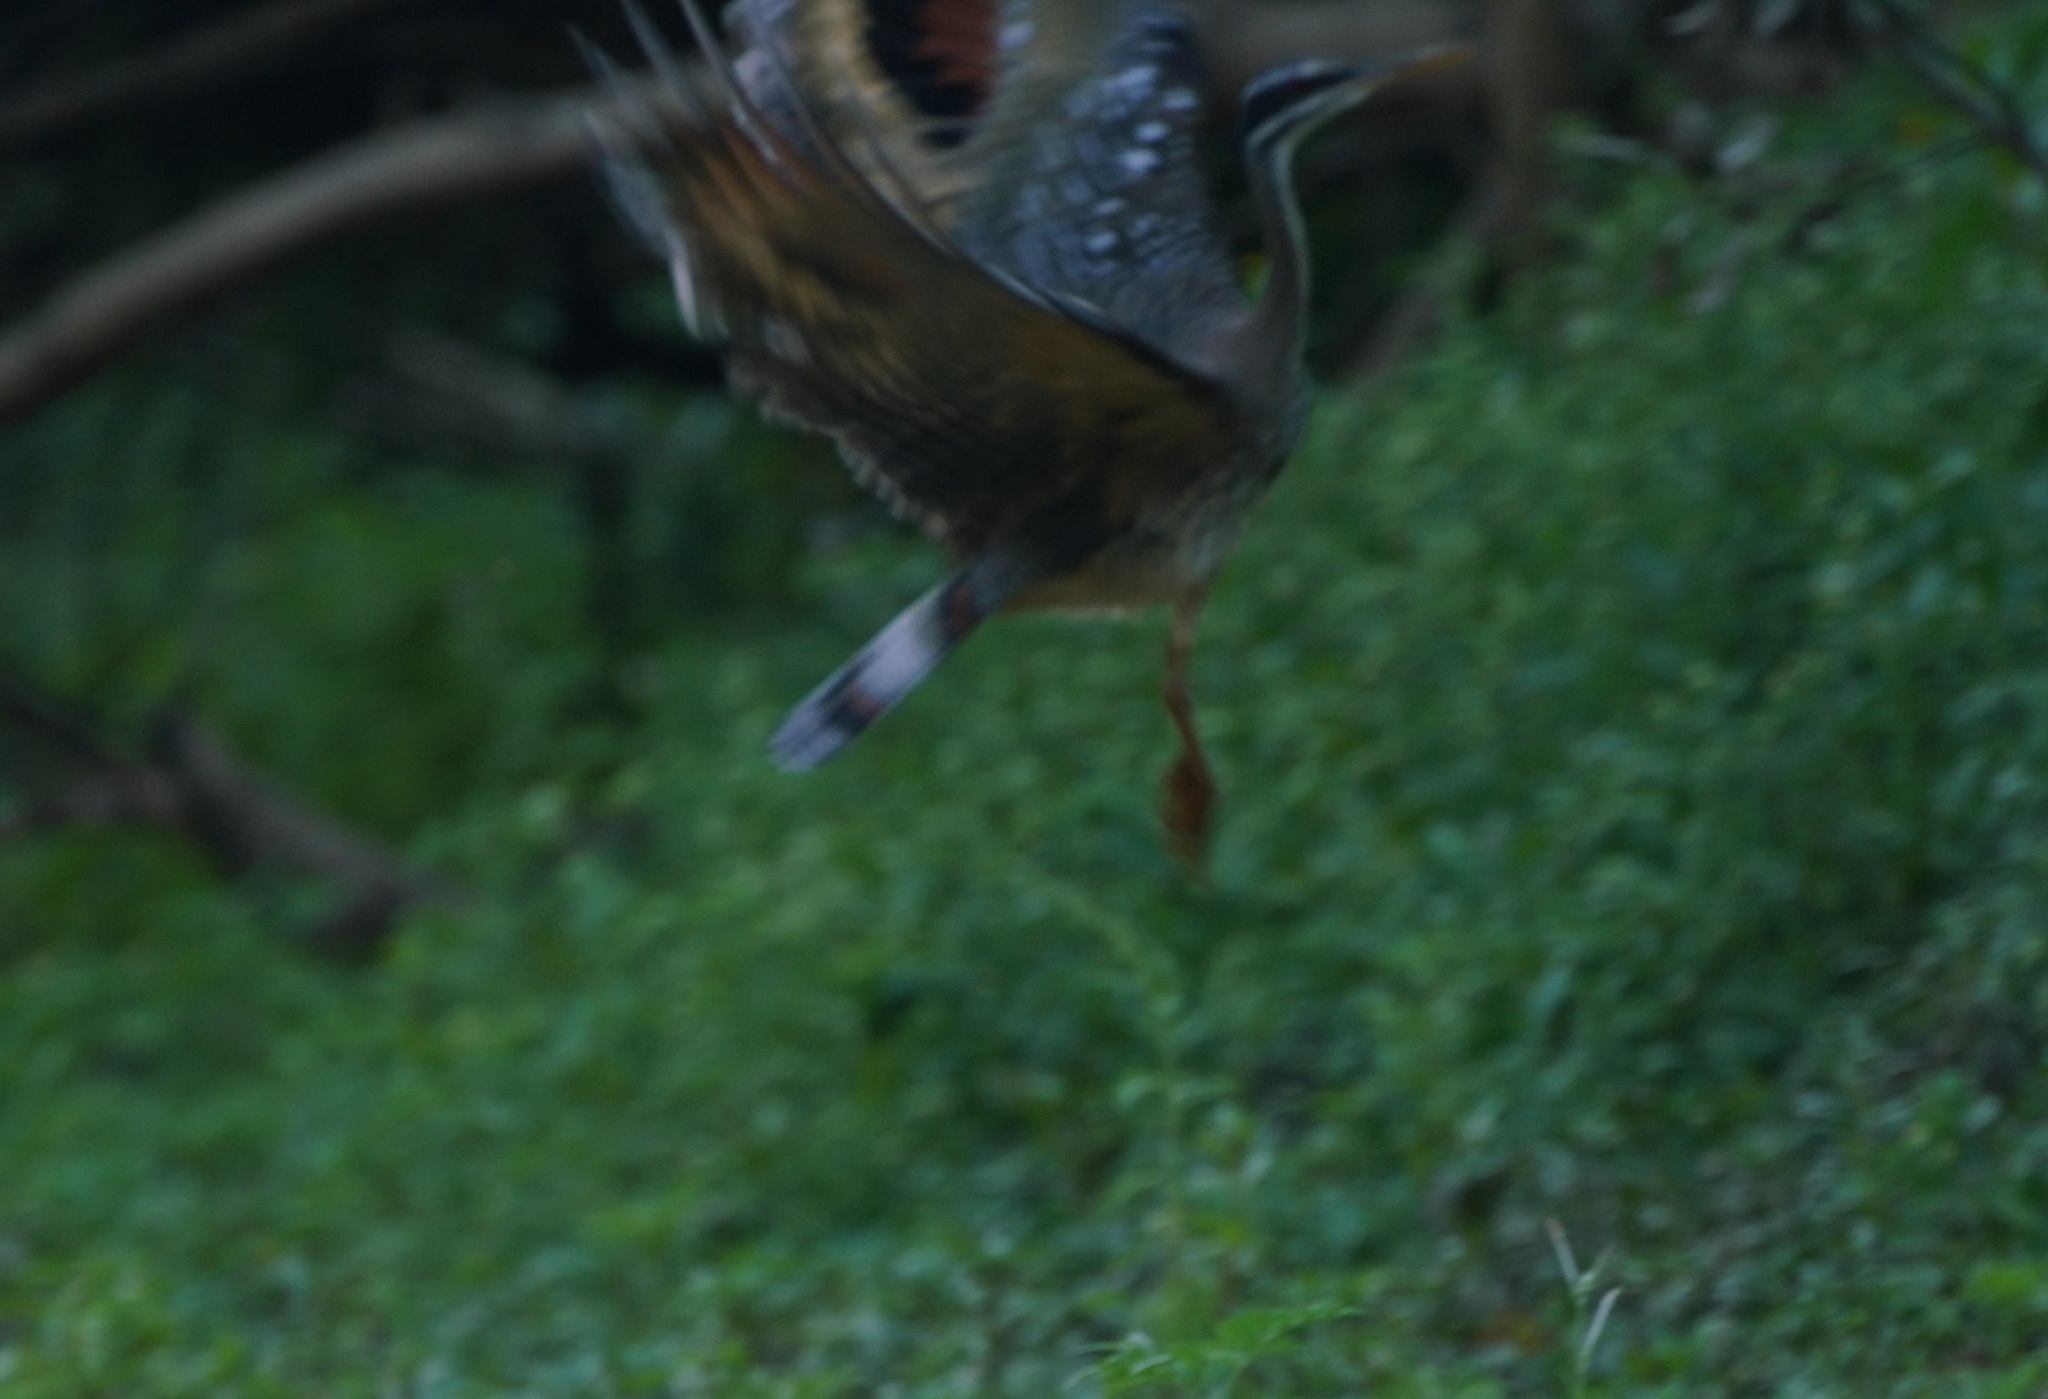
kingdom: Animalia
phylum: Chordata
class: Aves
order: Eurypygiformes
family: Eurypygidae
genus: Eurypyga
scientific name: Eurypyga helias
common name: Sunbittern
